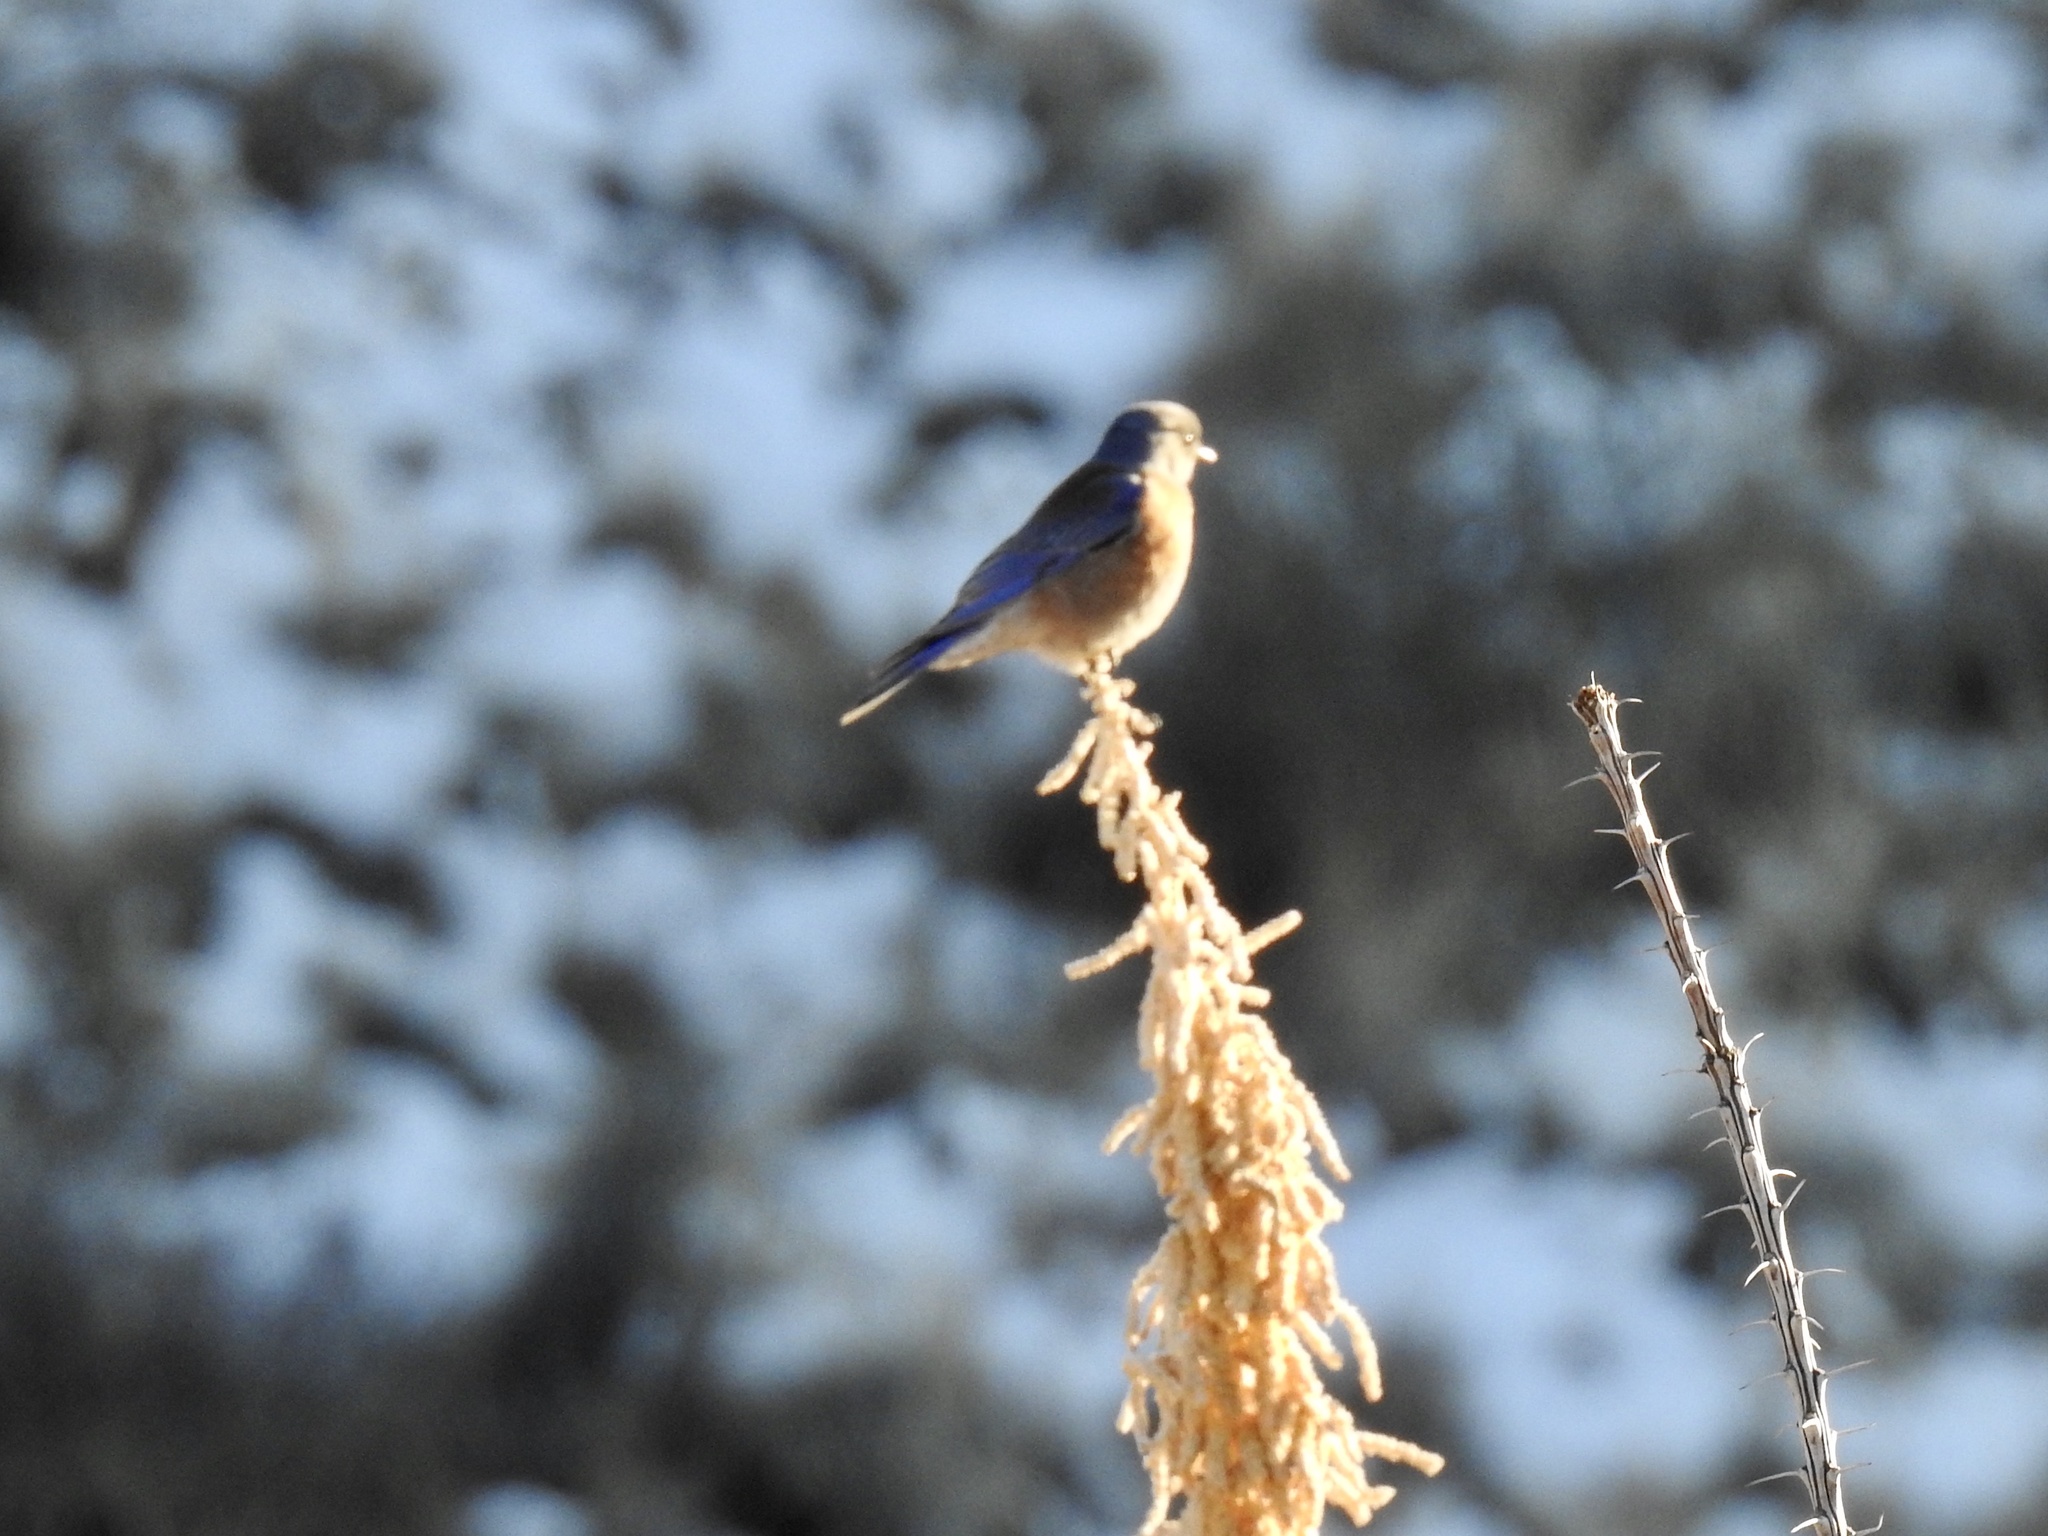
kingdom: Animalia
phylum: Chordata
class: Aves
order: Passeriformes
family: Turdidae
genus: Sialia
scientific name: Sialia mexicana
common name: Western bluebird
